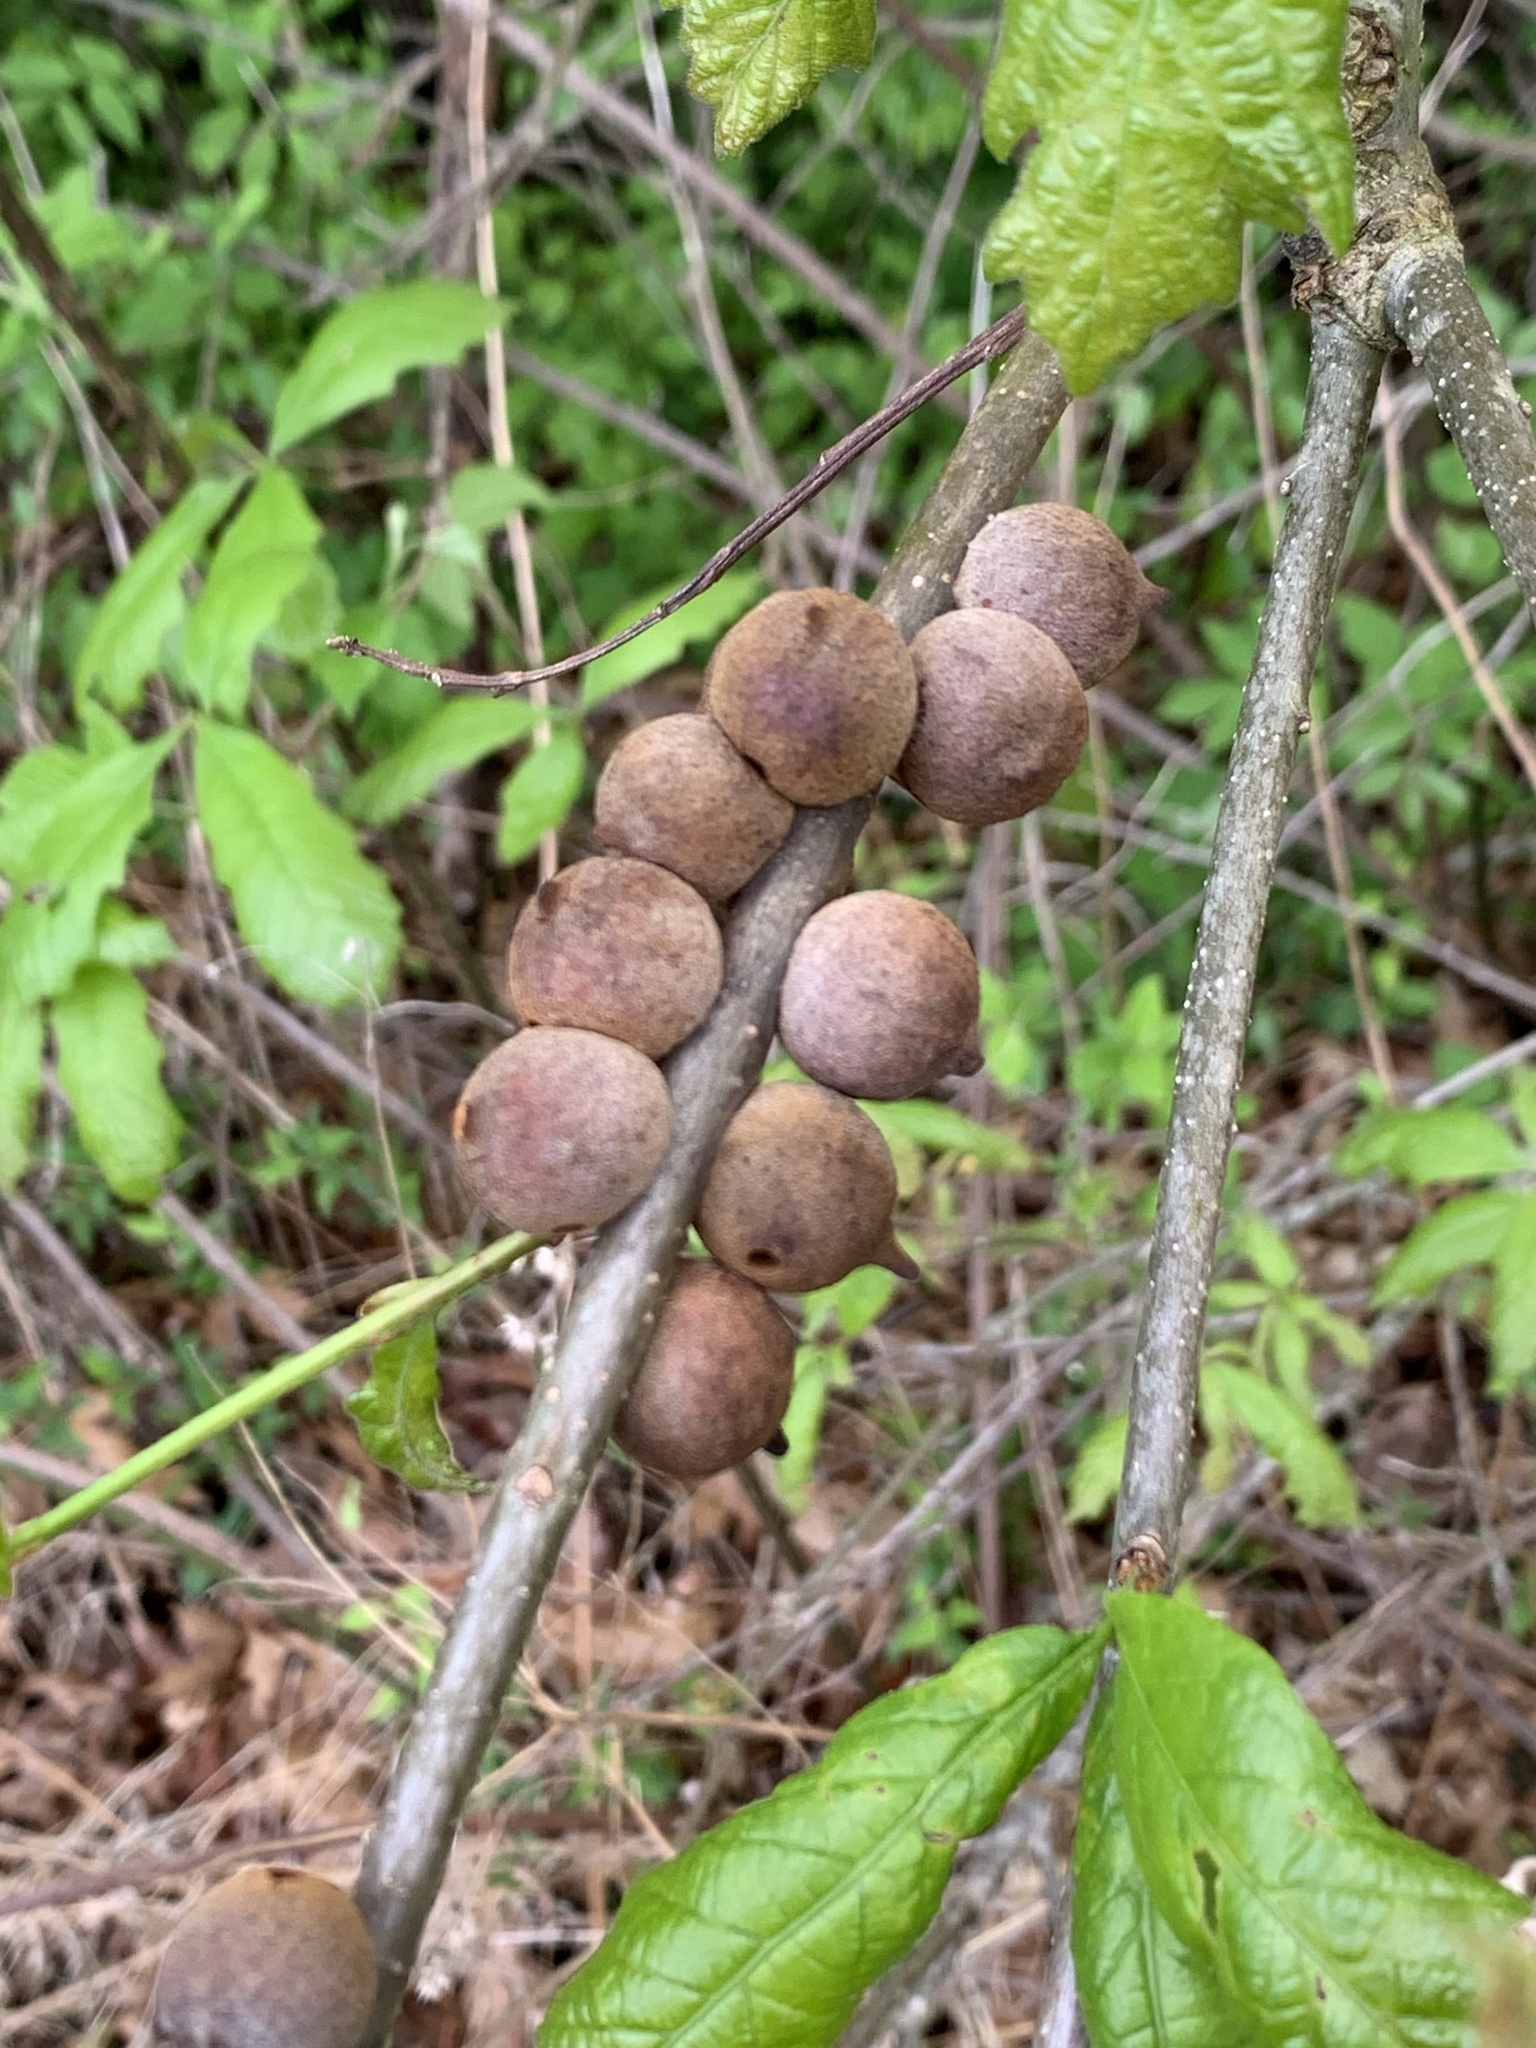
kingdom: Animalia
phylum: Arthropoda
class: Insecta
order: Hymenoptera
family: Cynipidae
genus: Disholcaspis
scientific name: Disholcaspis
